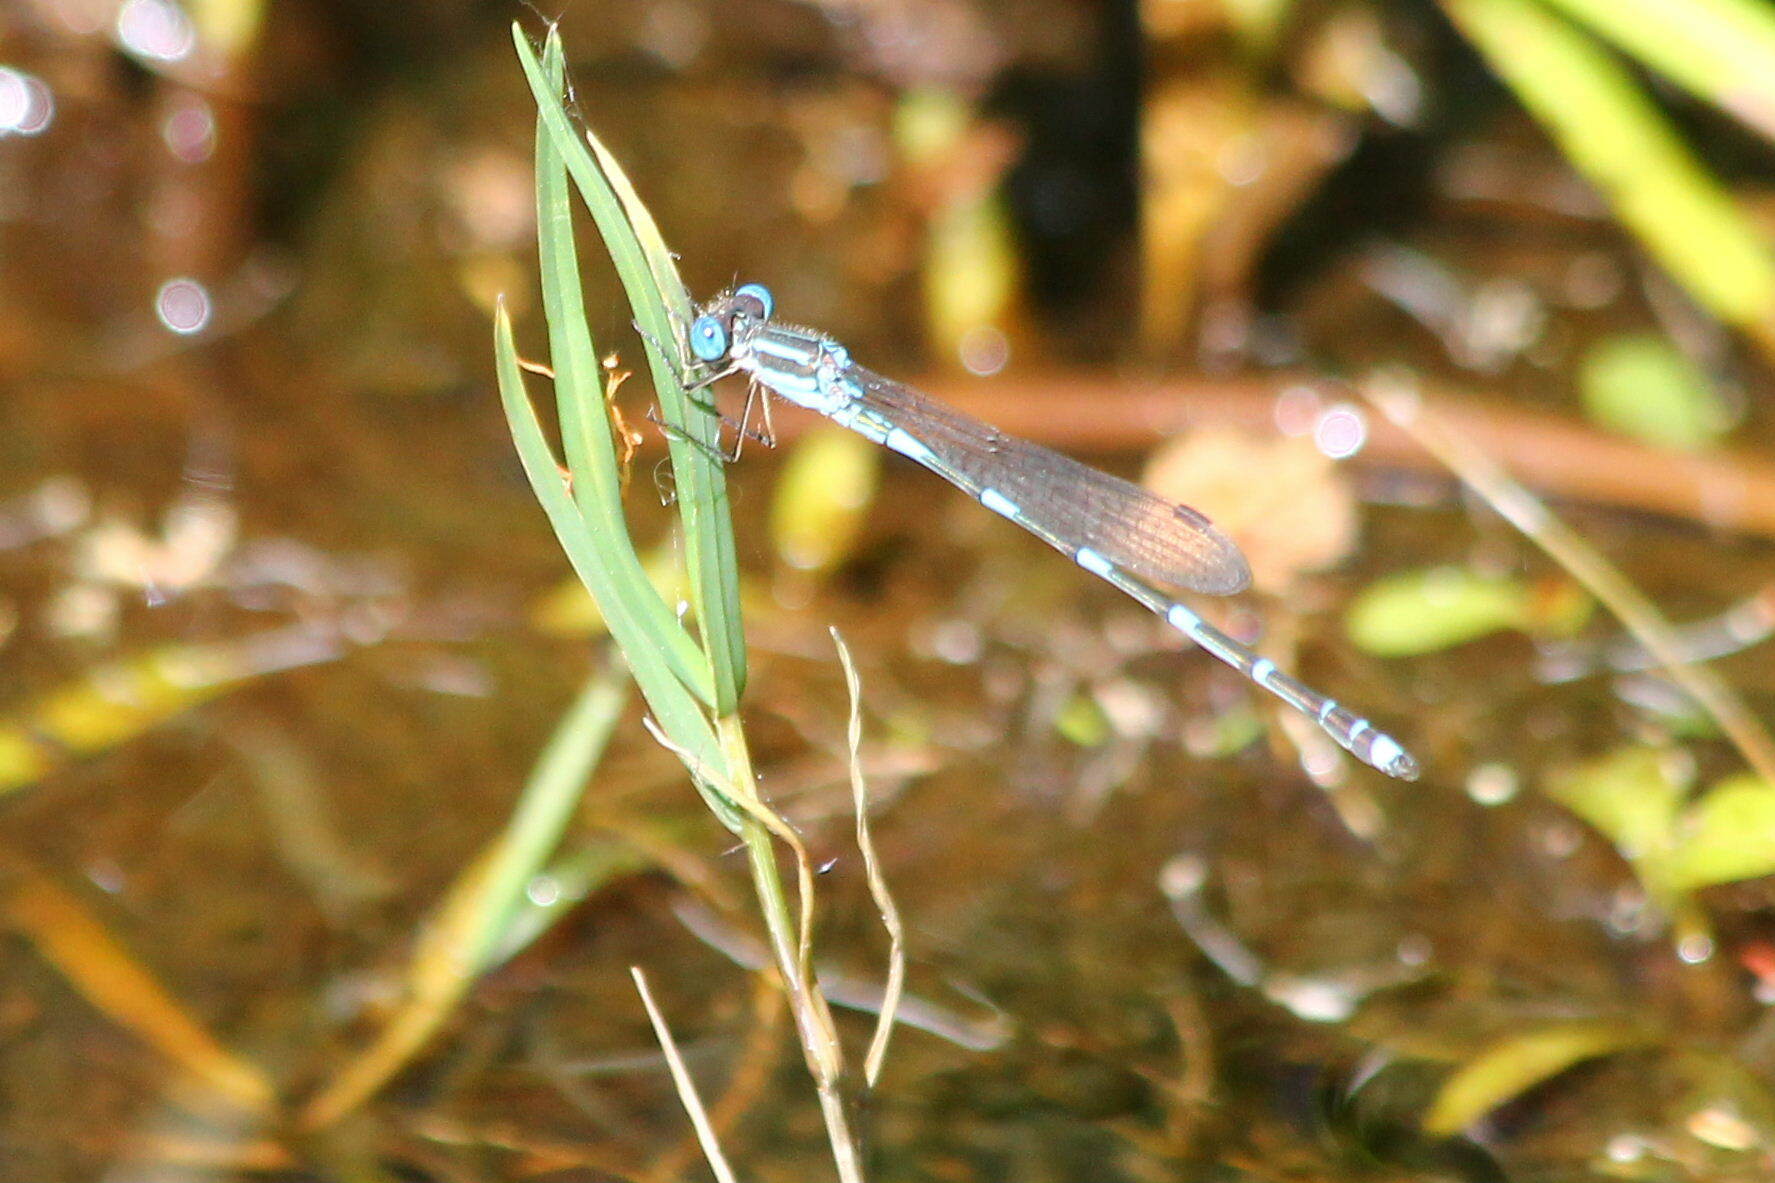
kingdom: Animalia
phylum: Arthropoda
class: Insecta
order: Odonata
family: Lestidae
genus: Austrolestes
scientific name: Austrolestes leda
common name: Wandering ringtail
